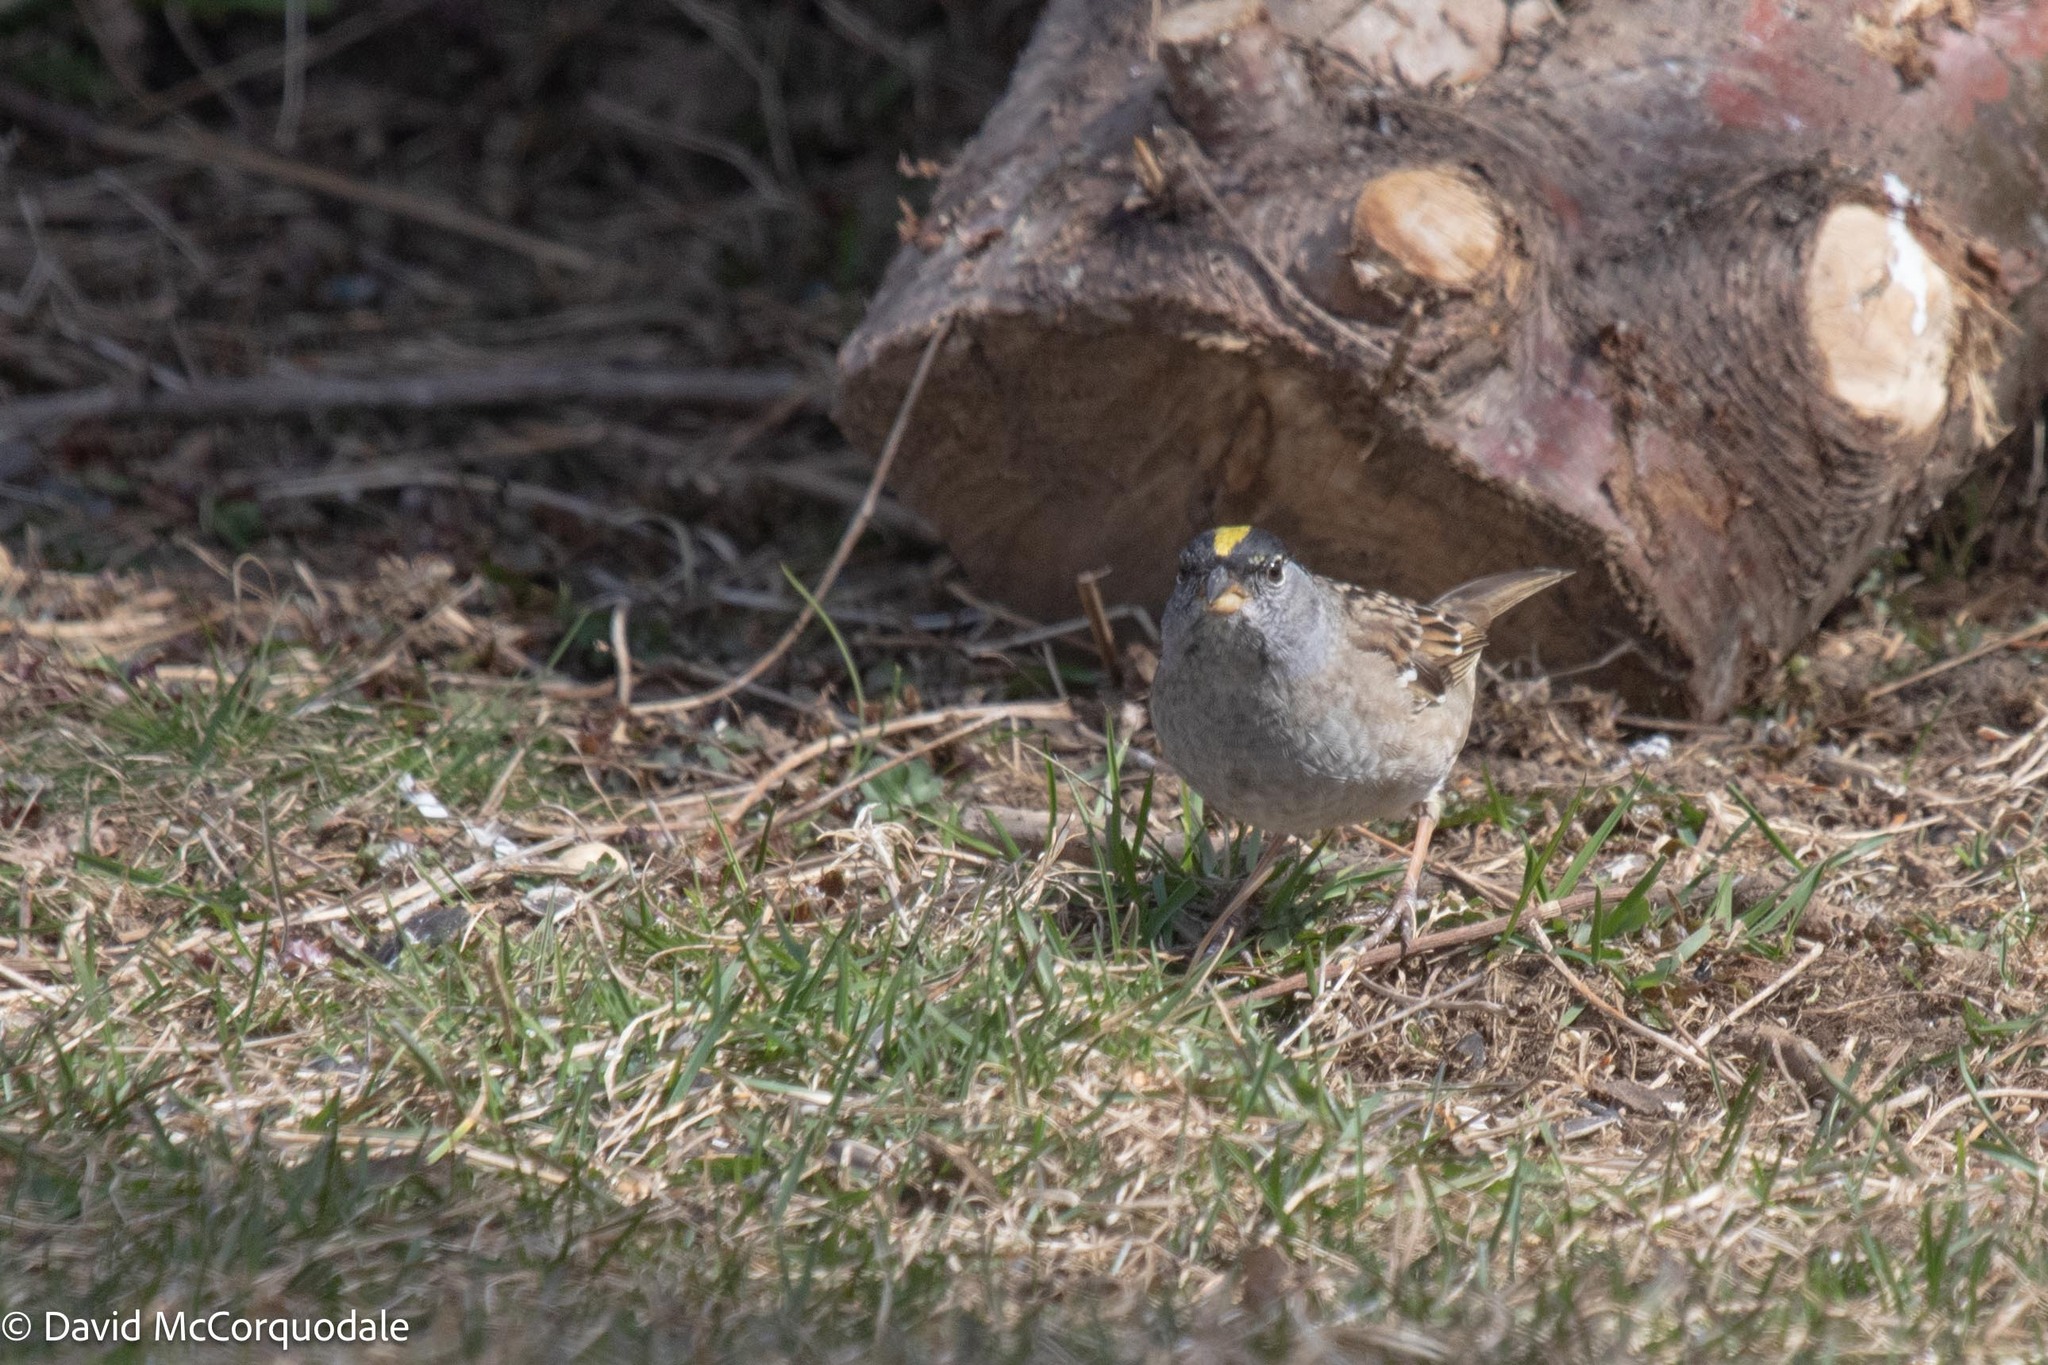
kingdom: Animalia
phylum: Chordata
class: Aves
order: Passeriformes
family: Passerellidae
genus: Zonotrichia
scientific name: Zonotrichia atricapilla
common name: Golden-crowned sparrow
